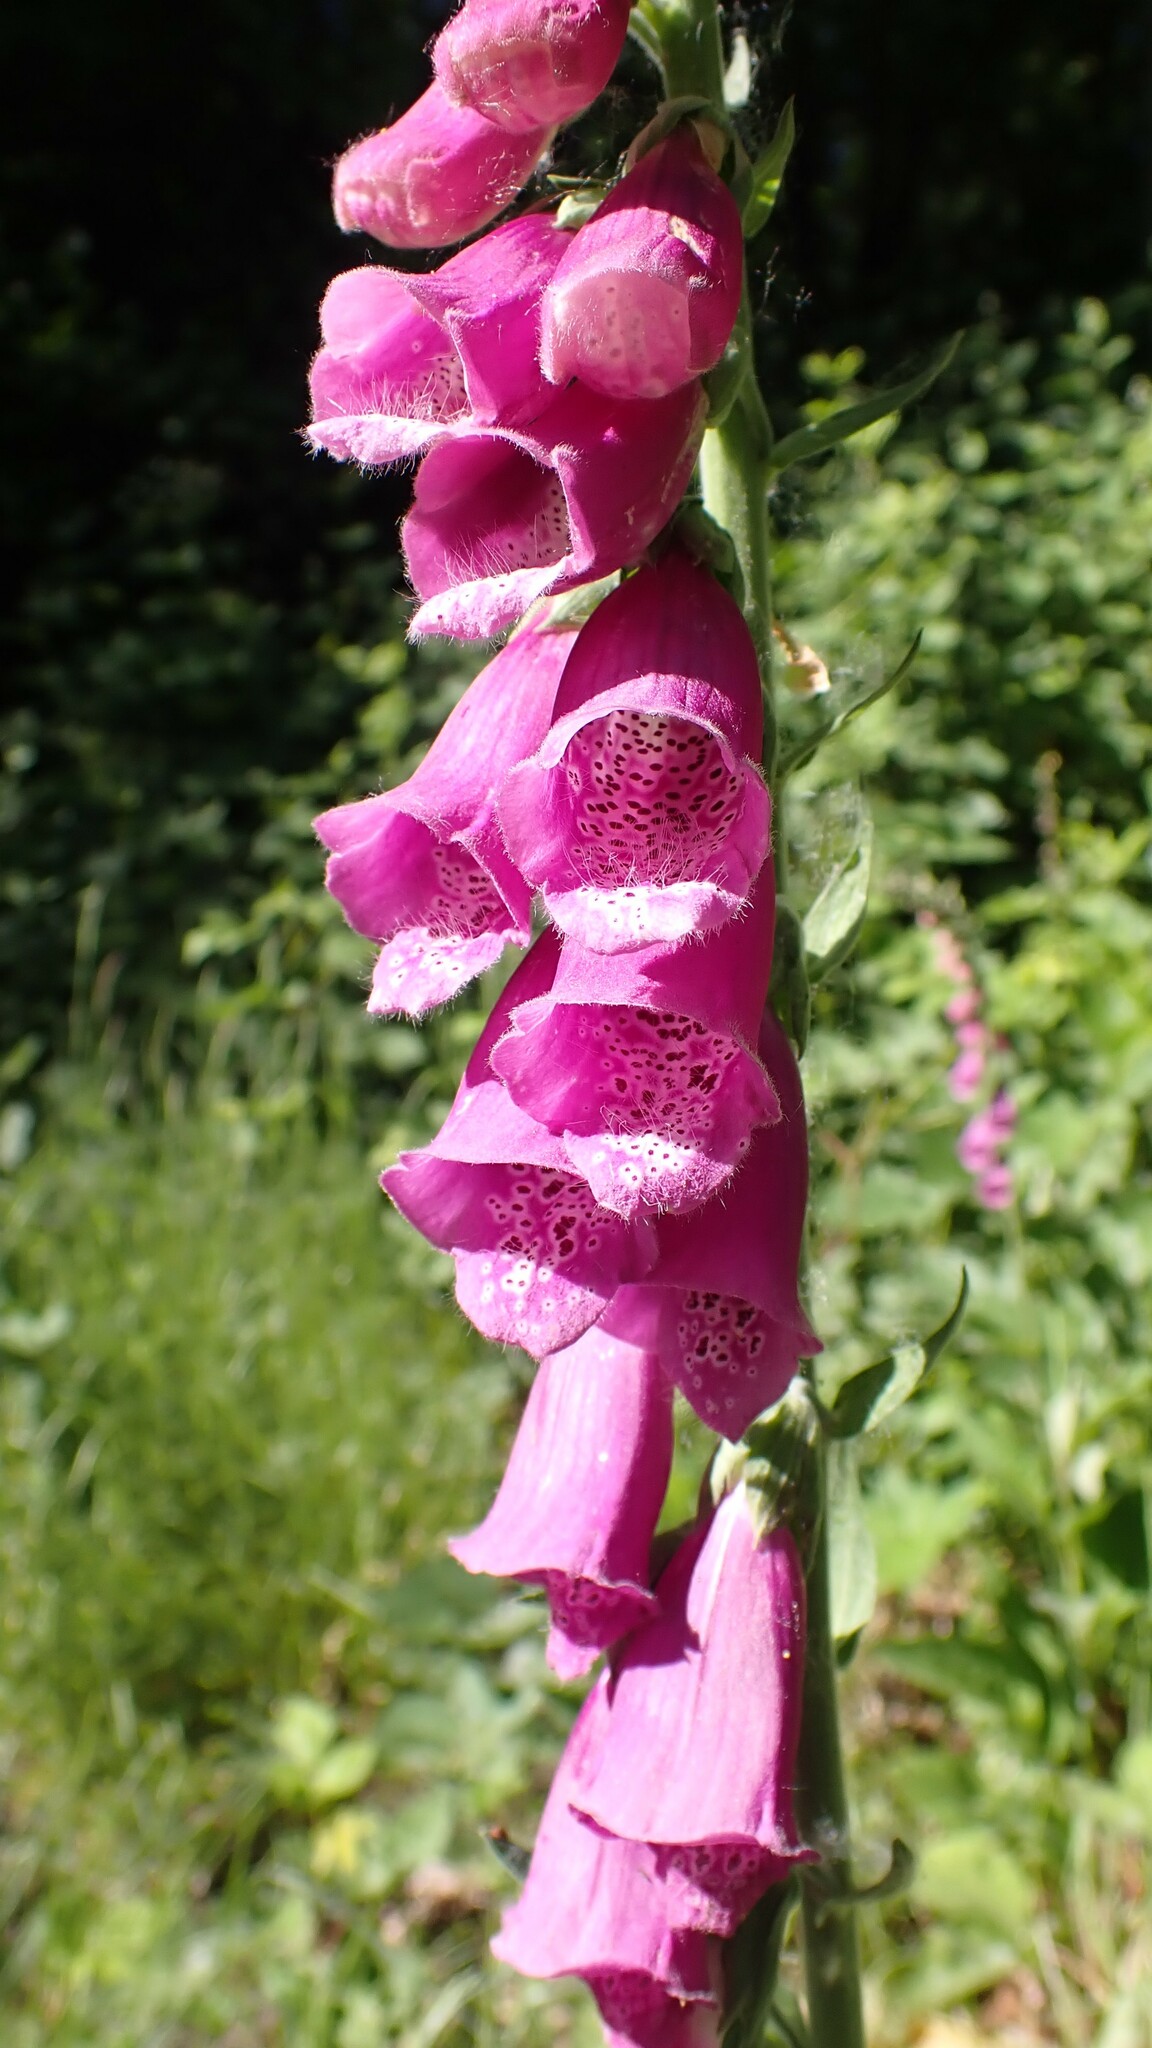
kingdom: Plantae
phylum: Tracheophyta
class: Magnoliopsida
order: Lamiales
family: Plantaginaceae
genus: Digitalis
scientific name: Digitalis purpurea
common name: Foxglove
